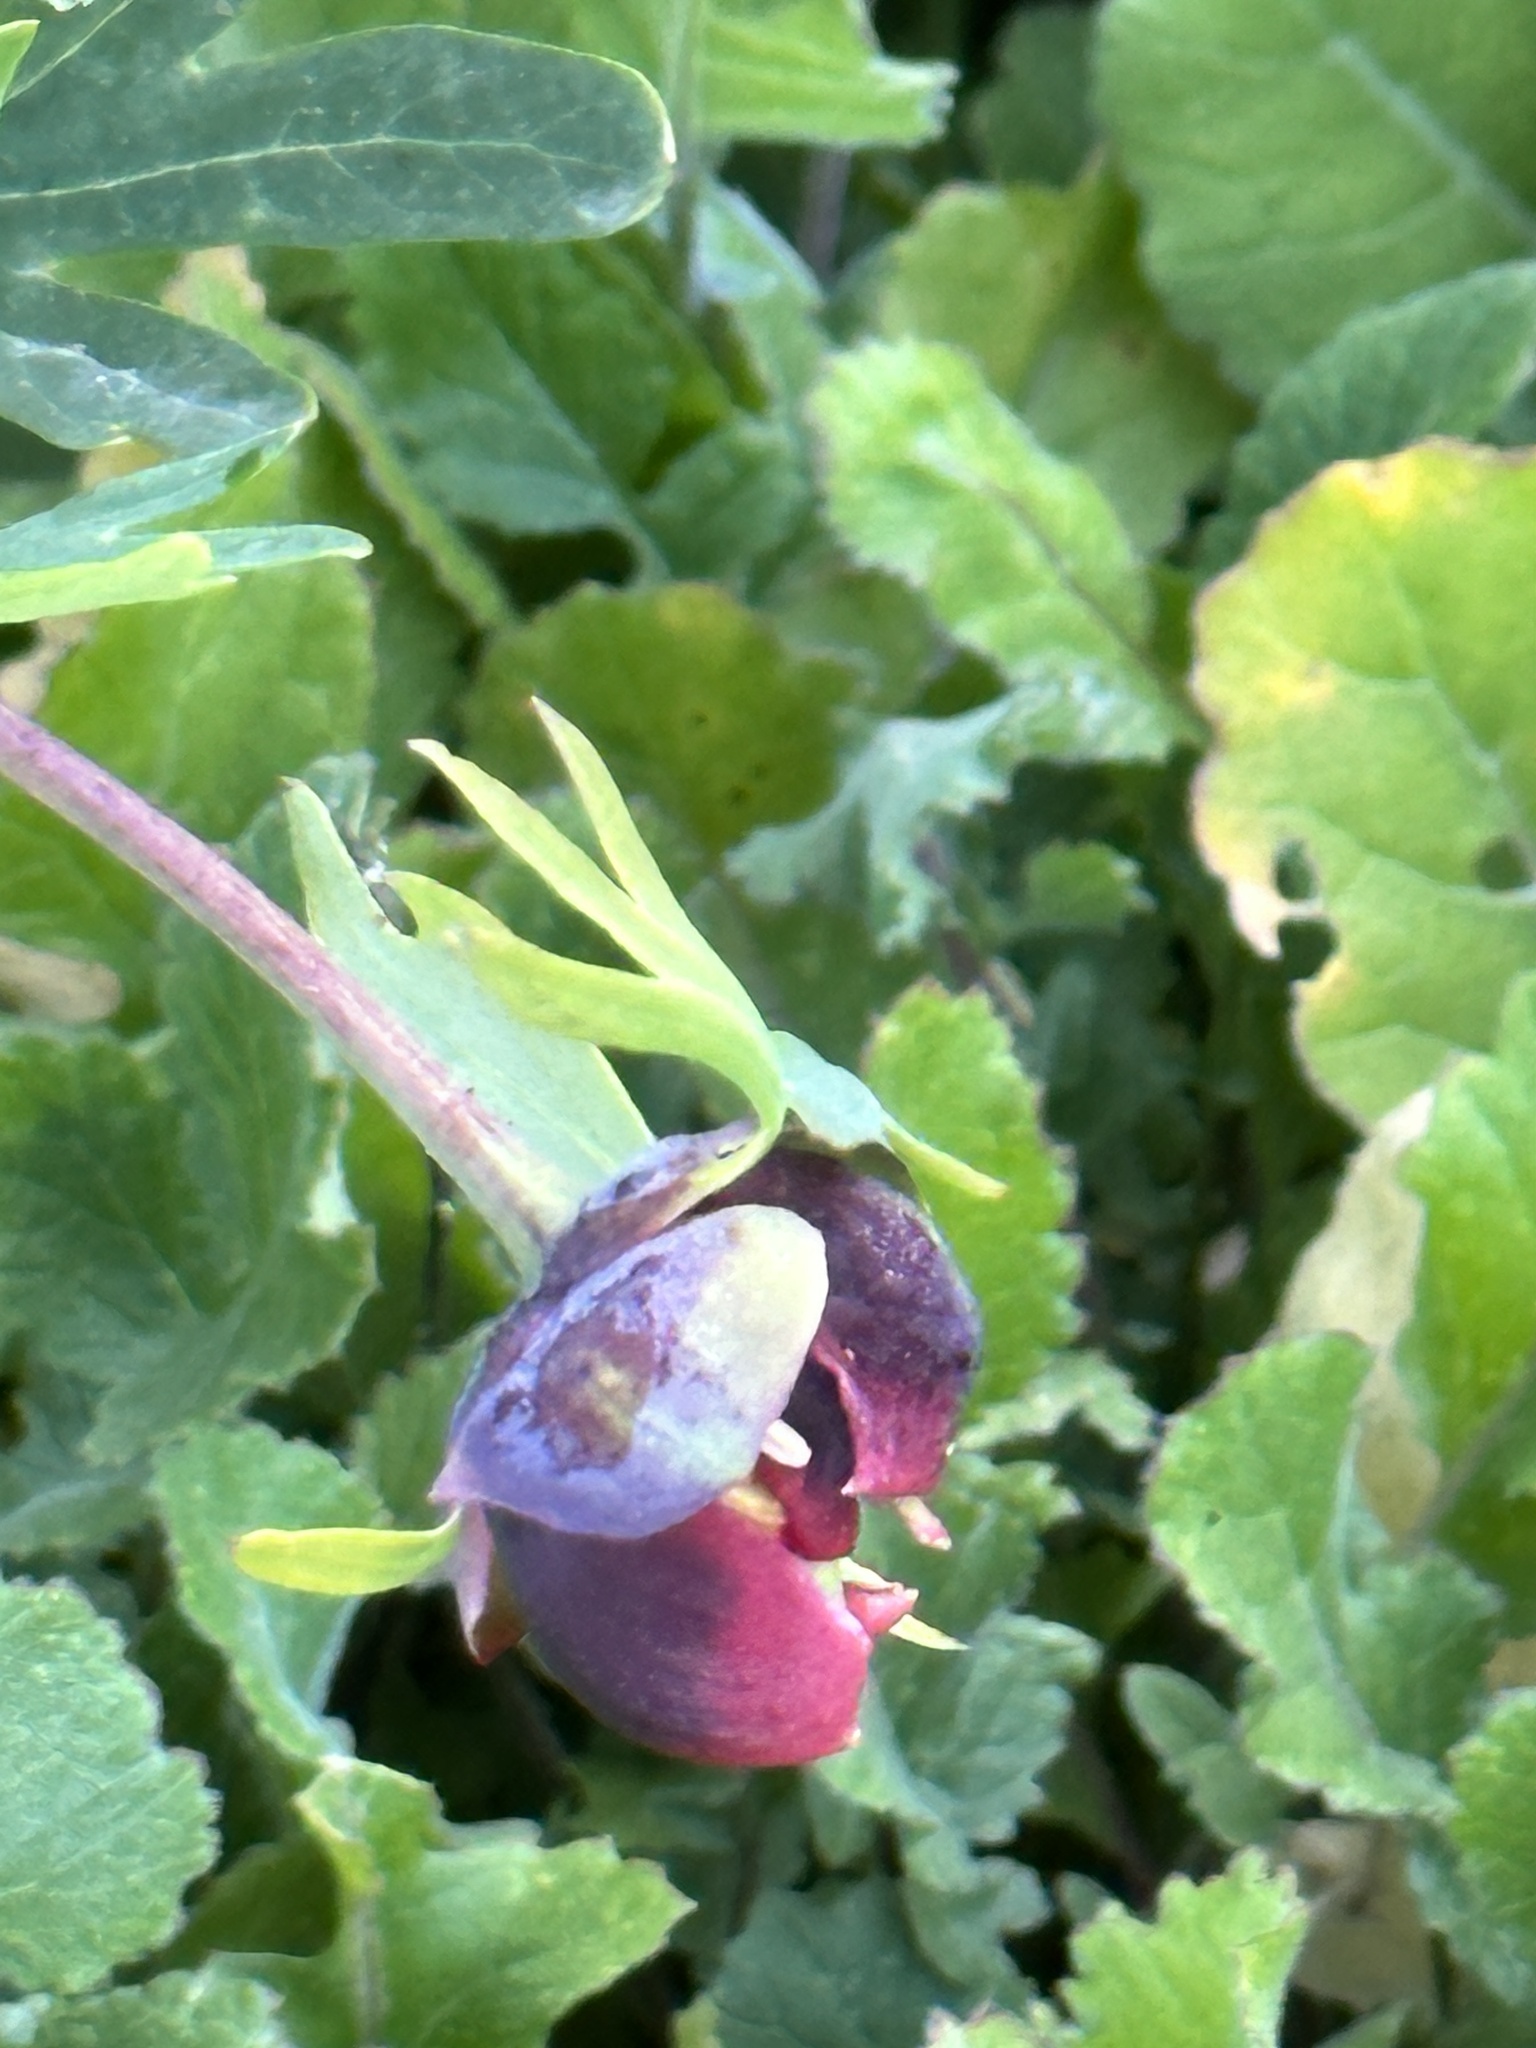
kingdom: Plantae
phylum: Tracheophyta
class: Magnoliopsida
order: Saxifragales
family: Paeoniaceae
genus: Paeonia
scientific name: Paeonia californica
